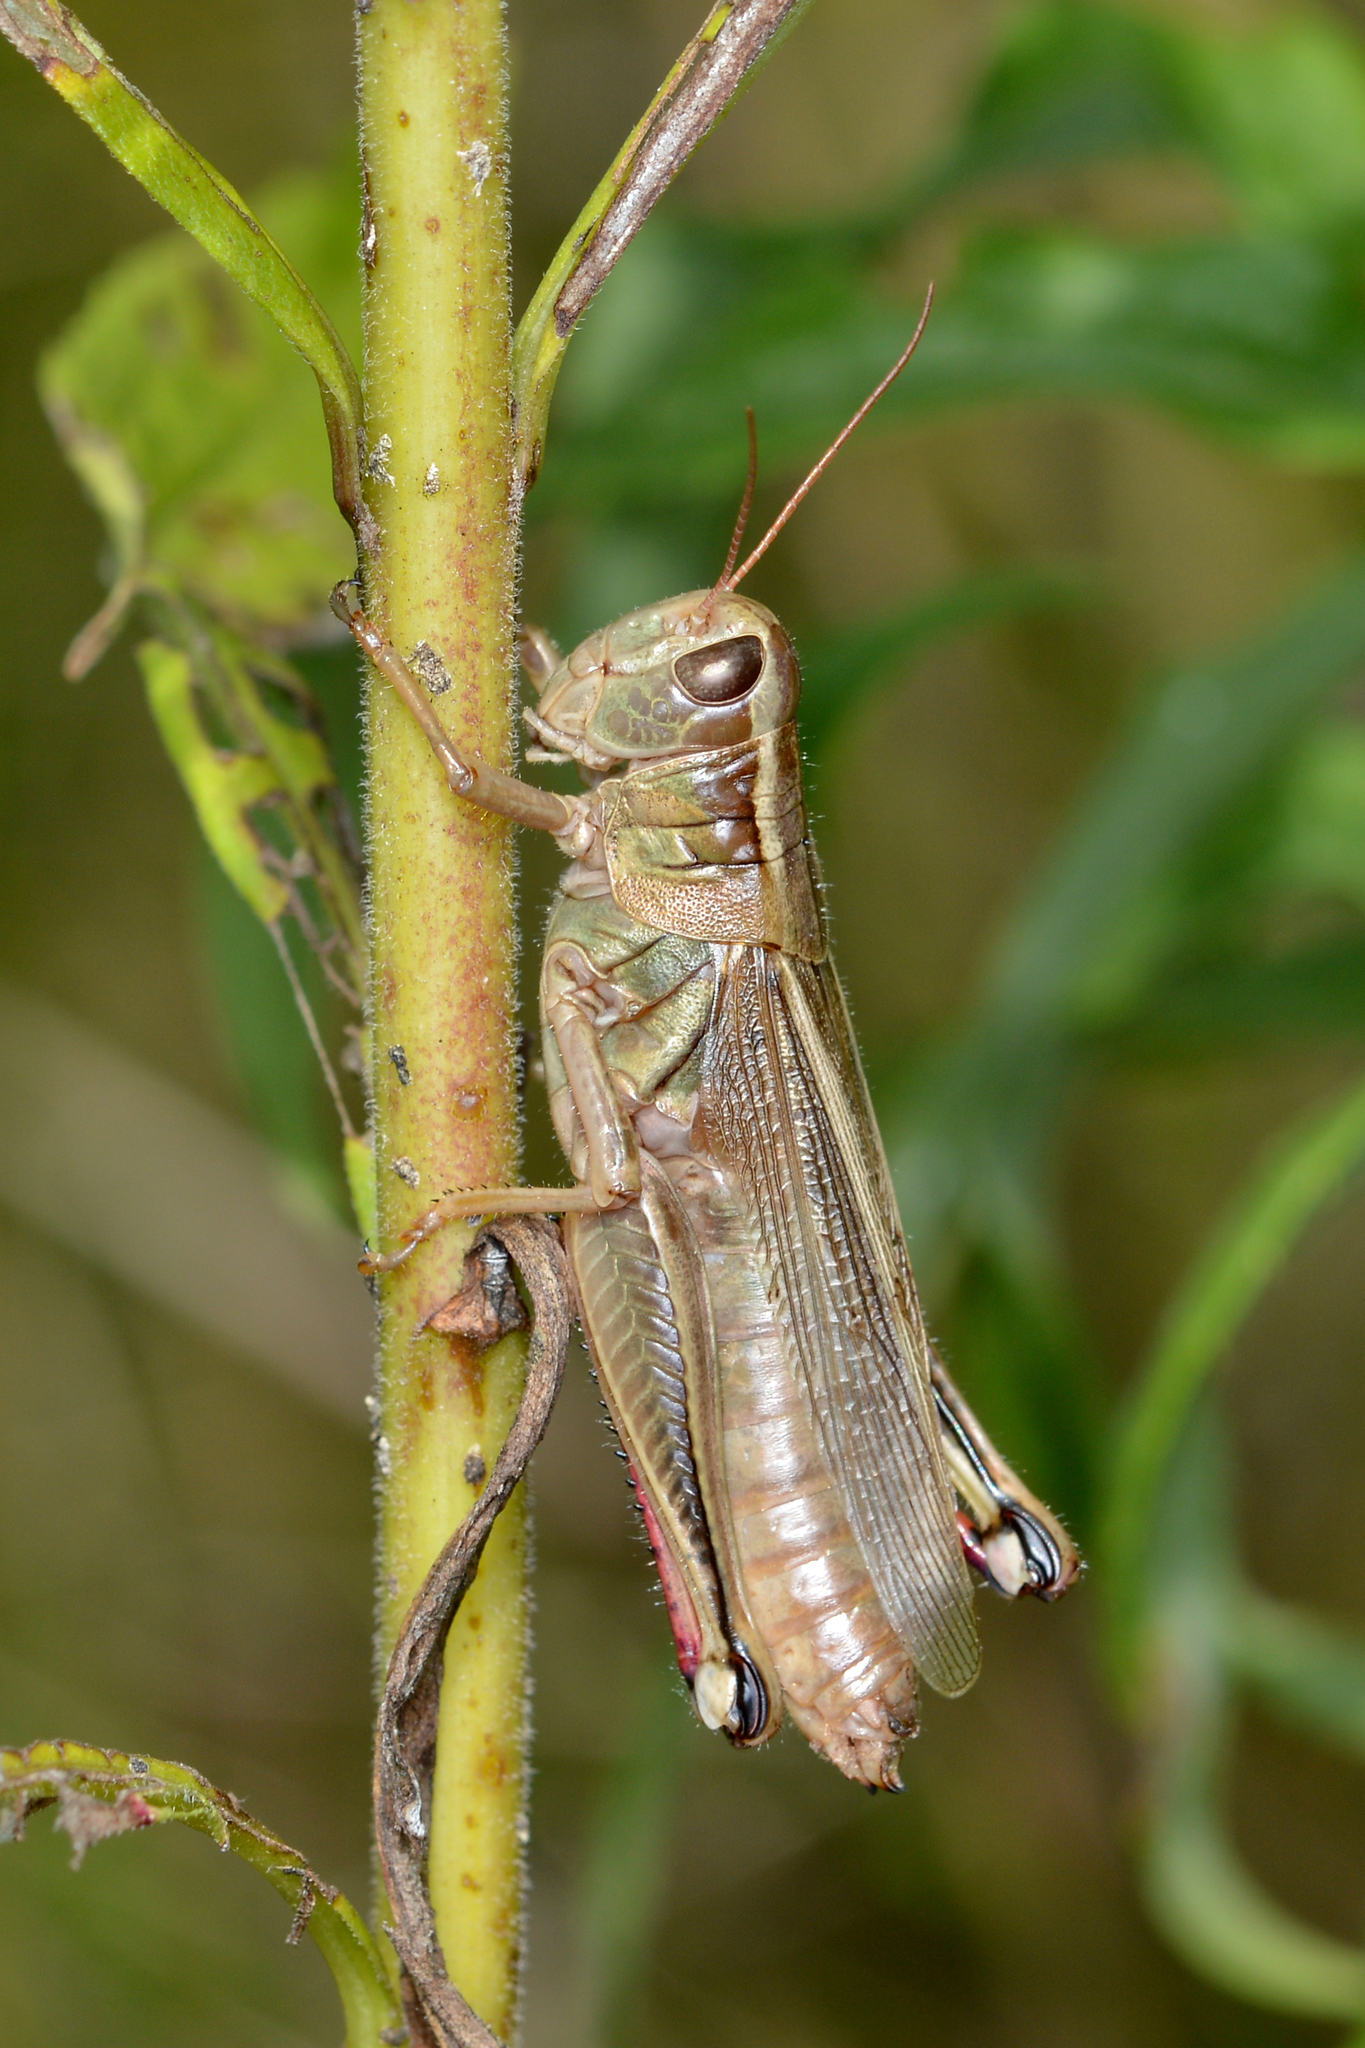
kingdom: Animalia
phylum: Arthropoda
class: Insecta
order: Orthoptera
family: Acrididae
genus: Melanoplus
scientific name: Melanoplus bivittatus
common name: Two-striped grasshopper
